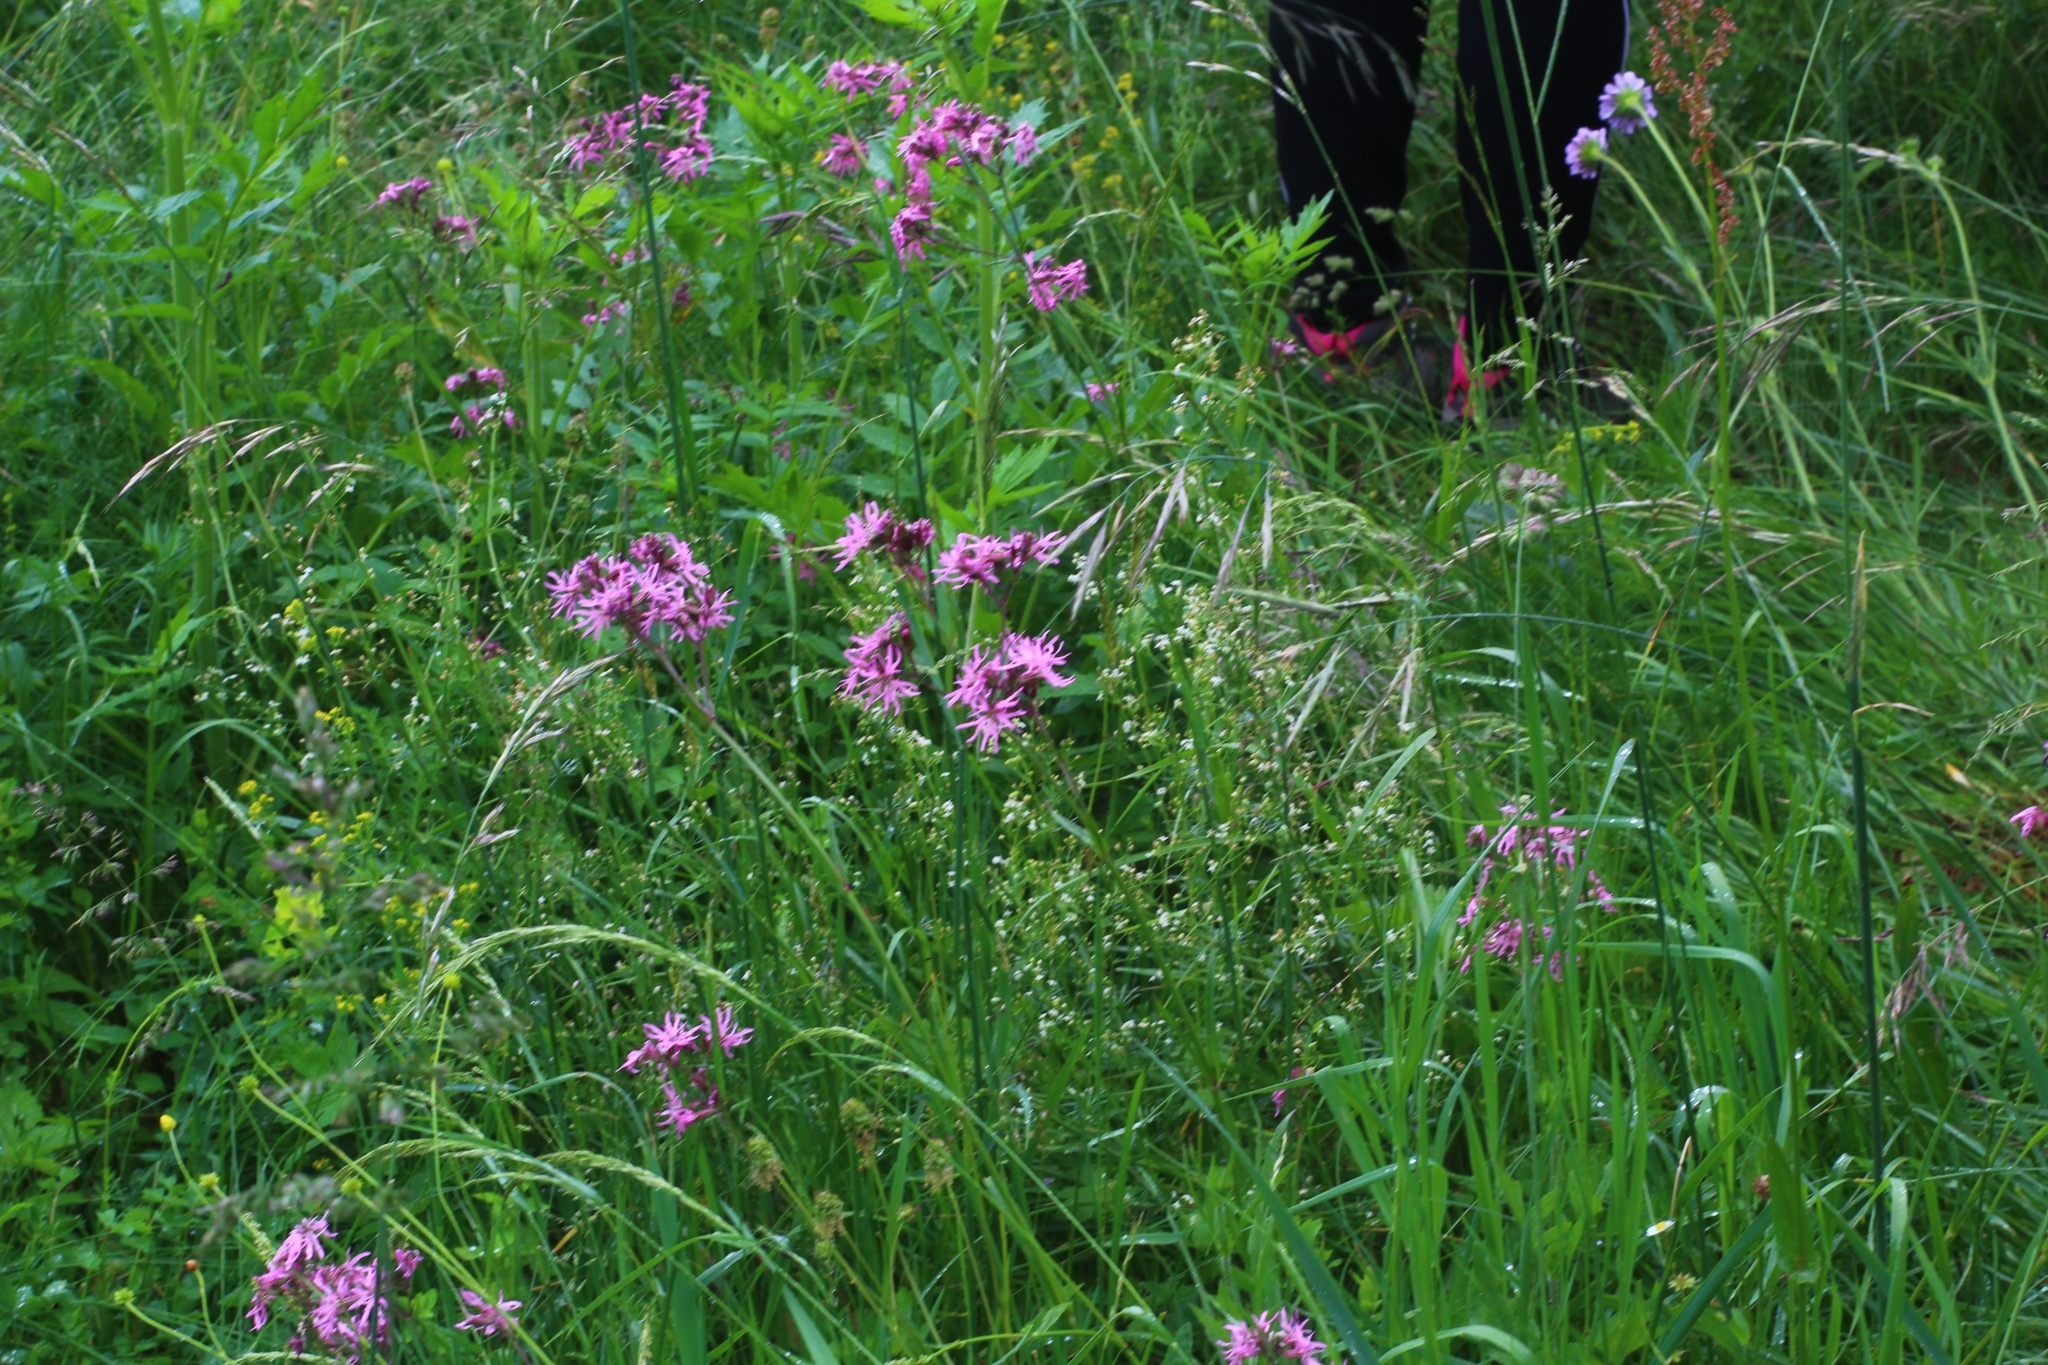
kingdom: Plantae
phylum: Tracheophyta
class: Magnoliopsida
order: Caryophyllales
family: Caryophyllaceae
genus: Silene
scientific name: Silene flos-cuculi
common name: Ragged-robin
